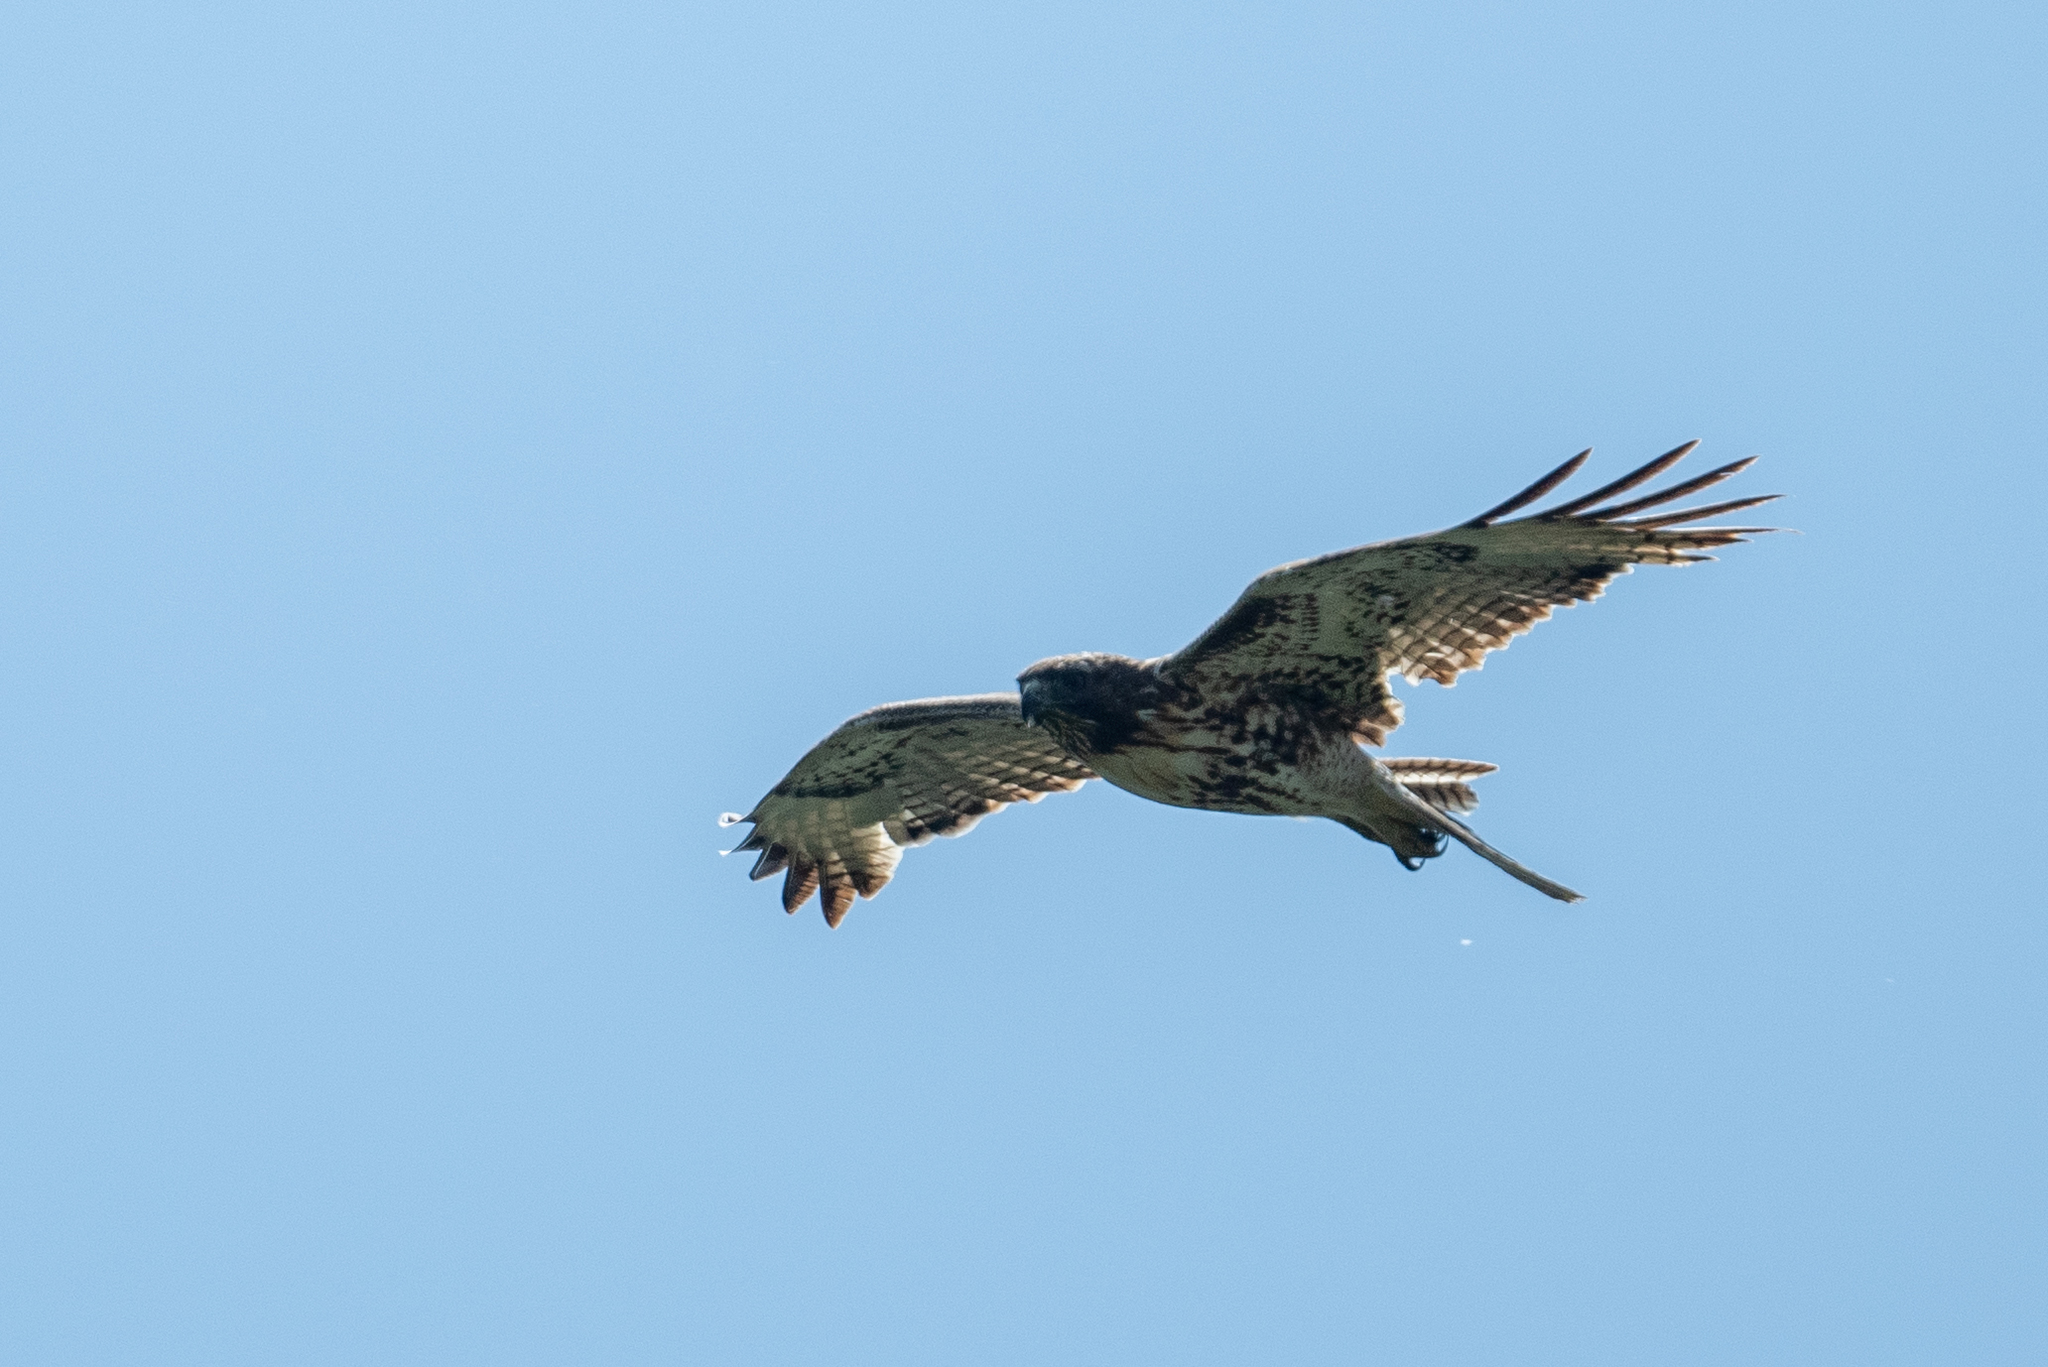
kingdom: Animalia
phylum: Chordata
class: Aves
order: Accipitriformes
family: Accipitridae
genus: Buteo
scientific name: Buteo jamaicensis
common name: Red-tailed hawk
